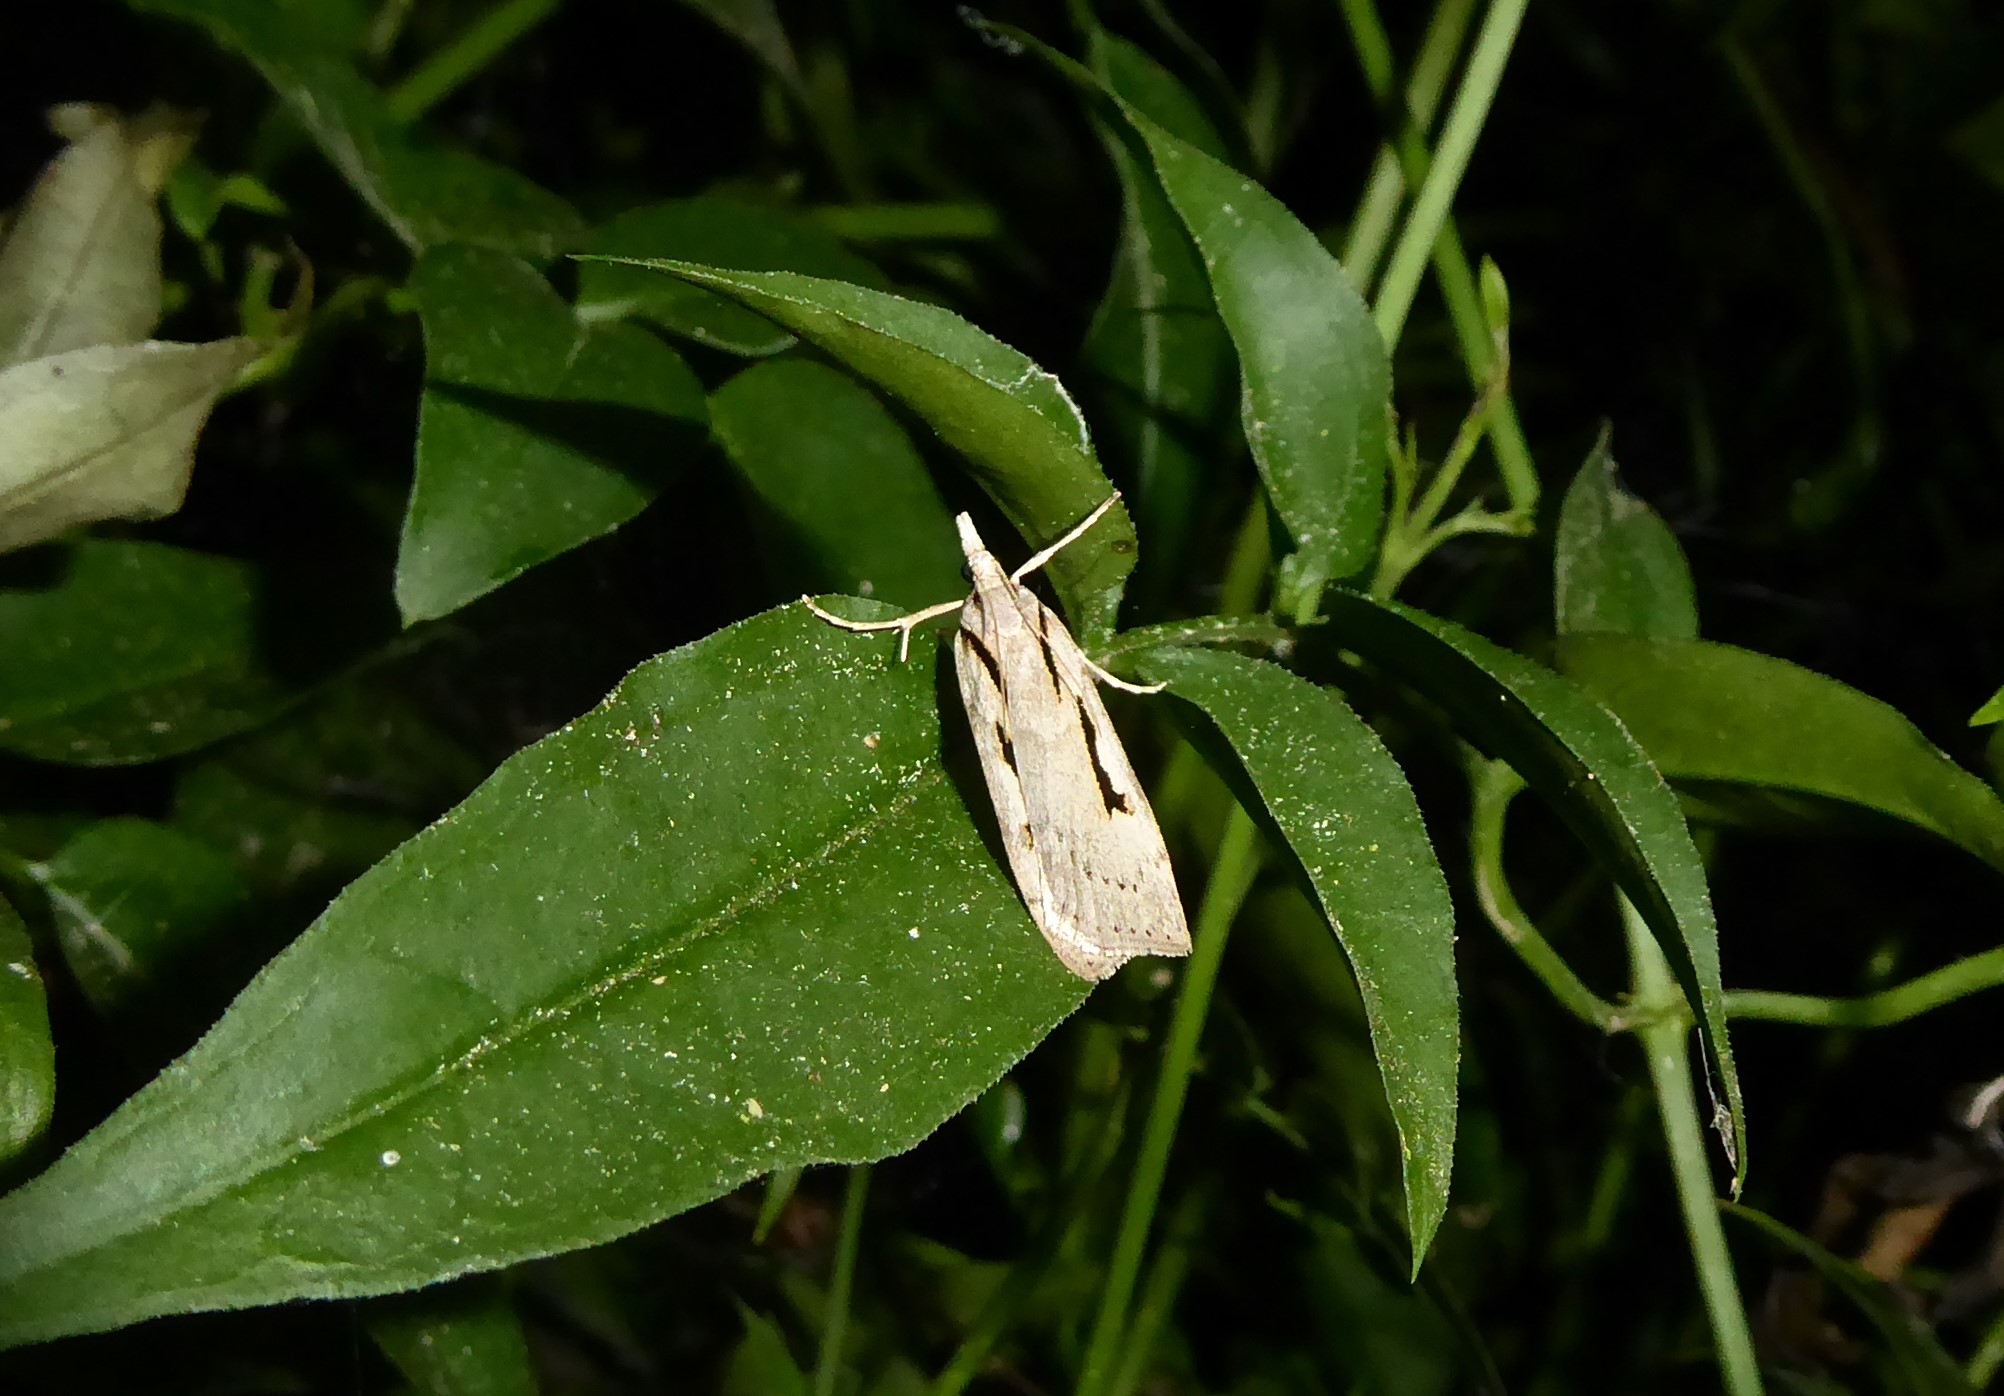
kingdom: Animalia
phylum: Arthropoda
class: Insecta
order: Lepidoptera
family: Crambidae
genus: Scoparia
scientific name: Scoparia rotuellus
